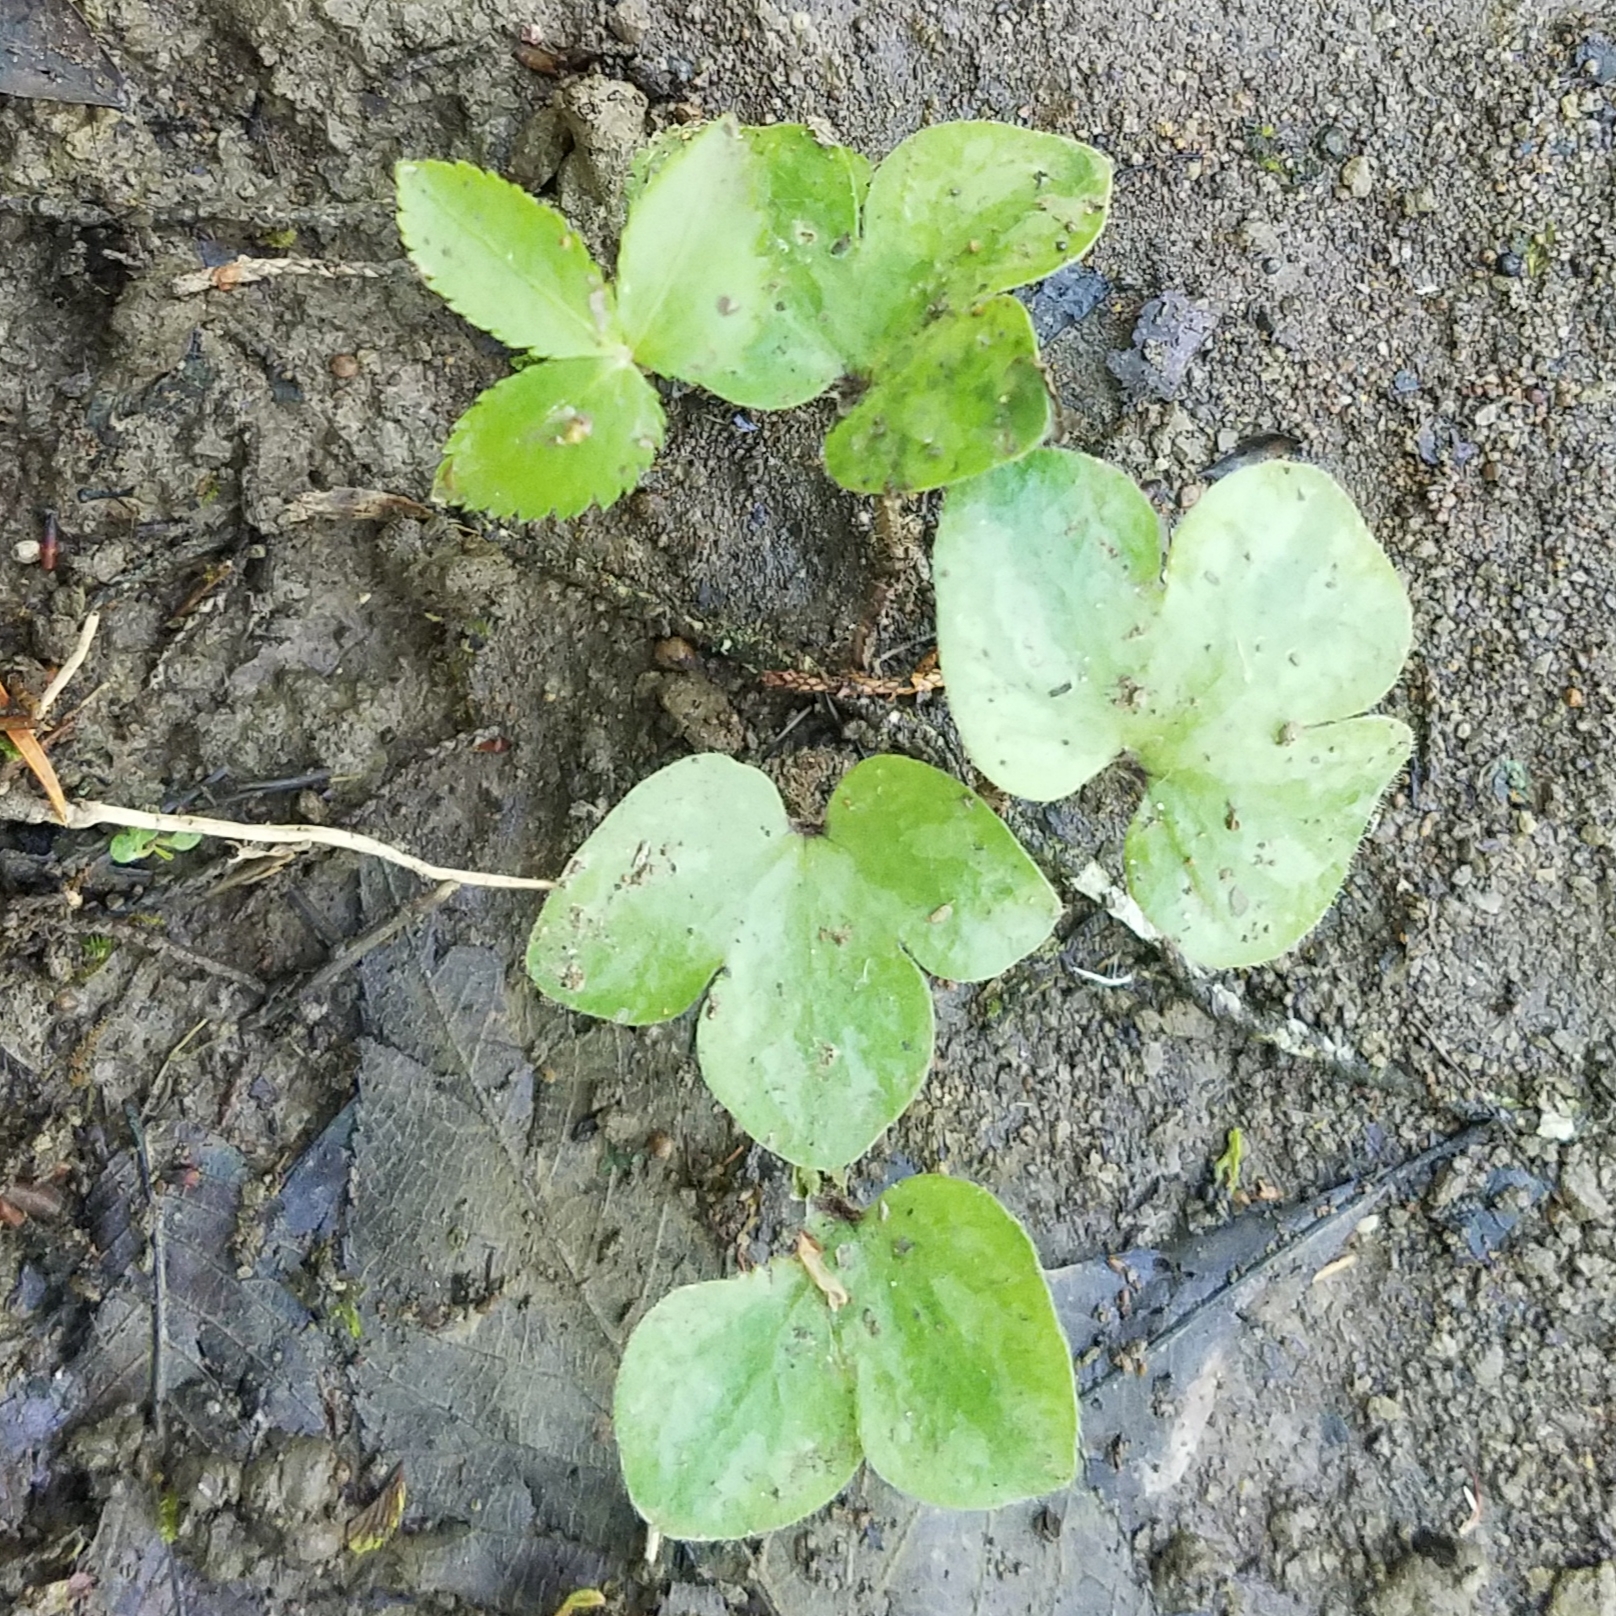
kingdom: Plantae
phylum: Tracheophyta
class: Magnoliopsida
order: Ranunculales
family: Ranunculaceae
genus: Hepatica
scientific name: Hepatica americana
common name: American hepatica
